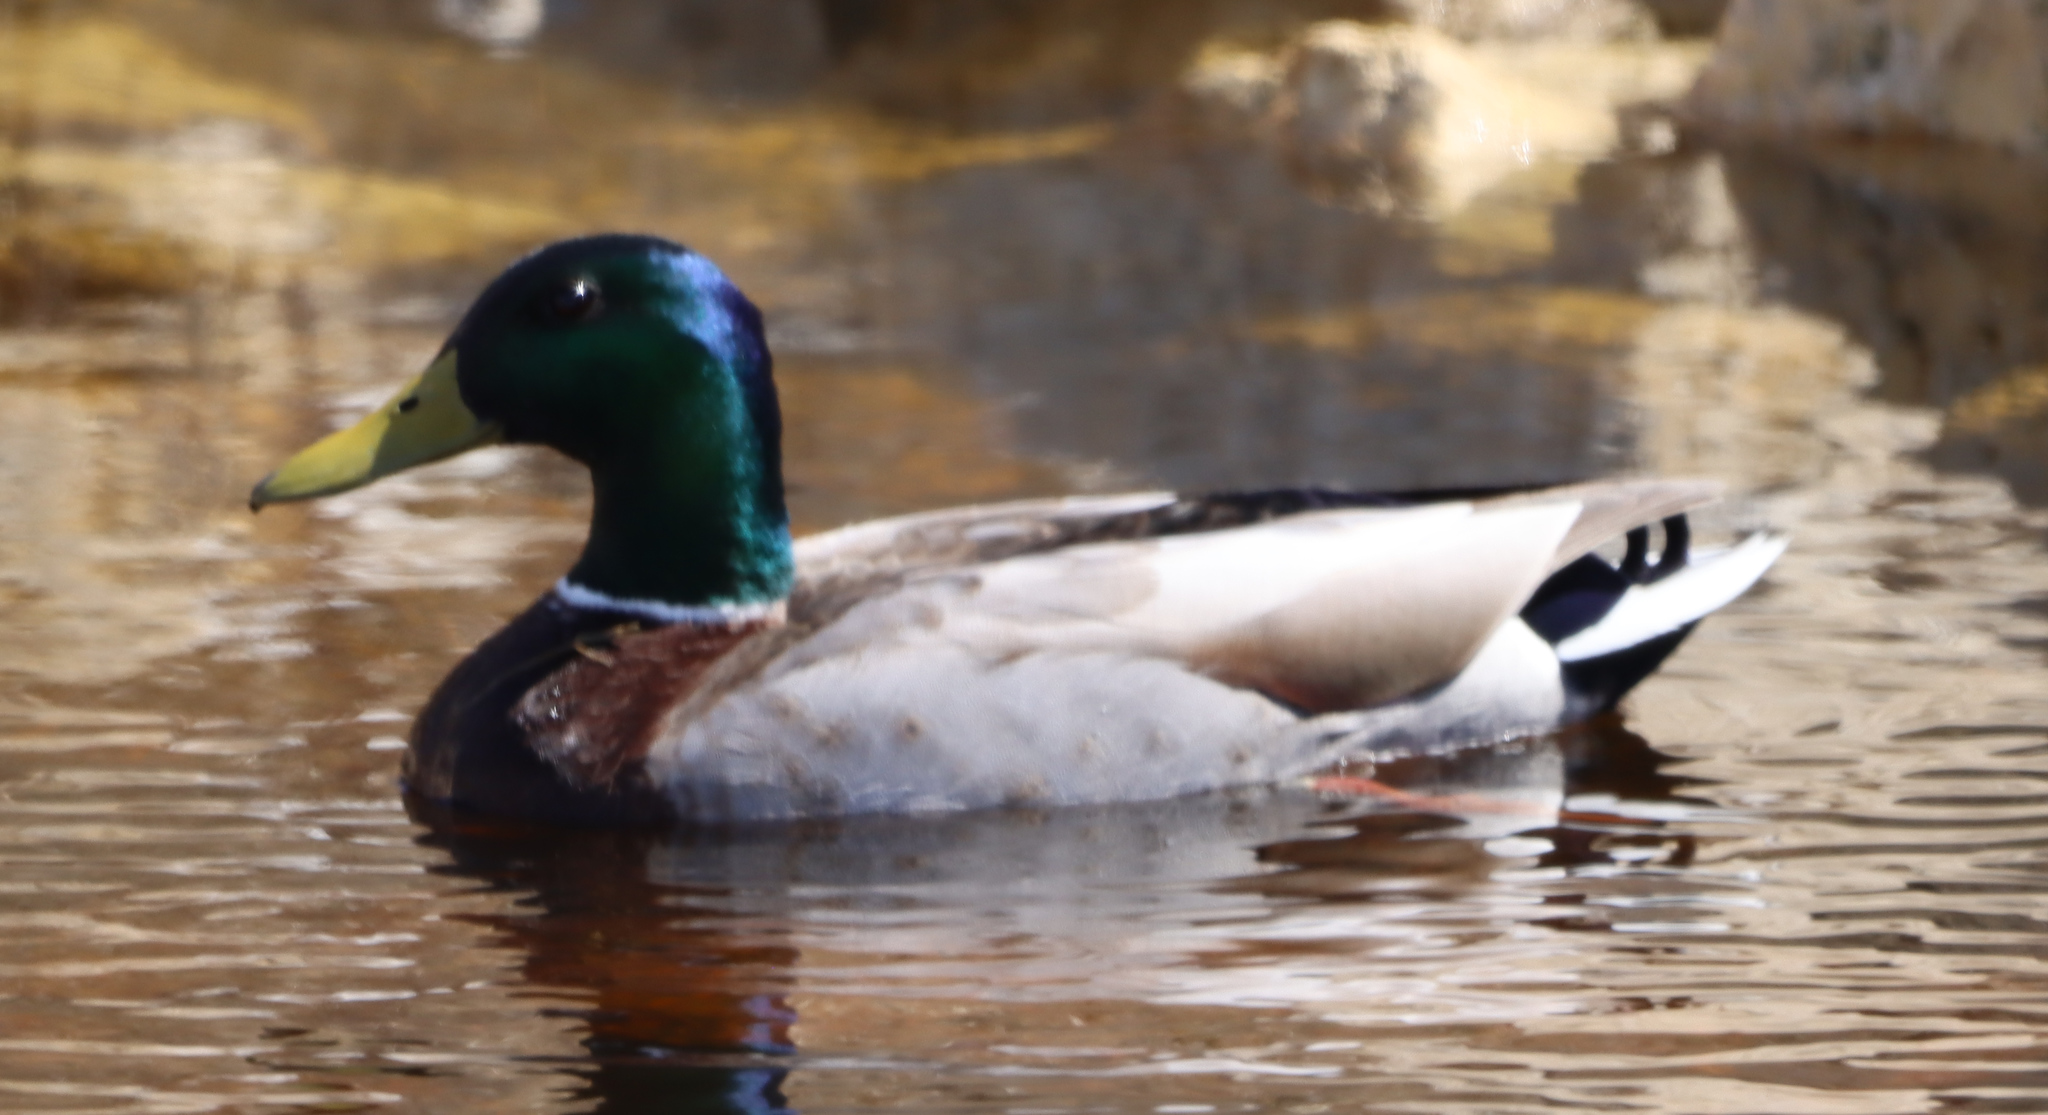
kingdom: Animalia
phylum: Chordata
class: Aves
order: Anseriformes
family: Anatidae
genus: Anas
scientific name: Anas platyrhynchos
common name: Mallard
